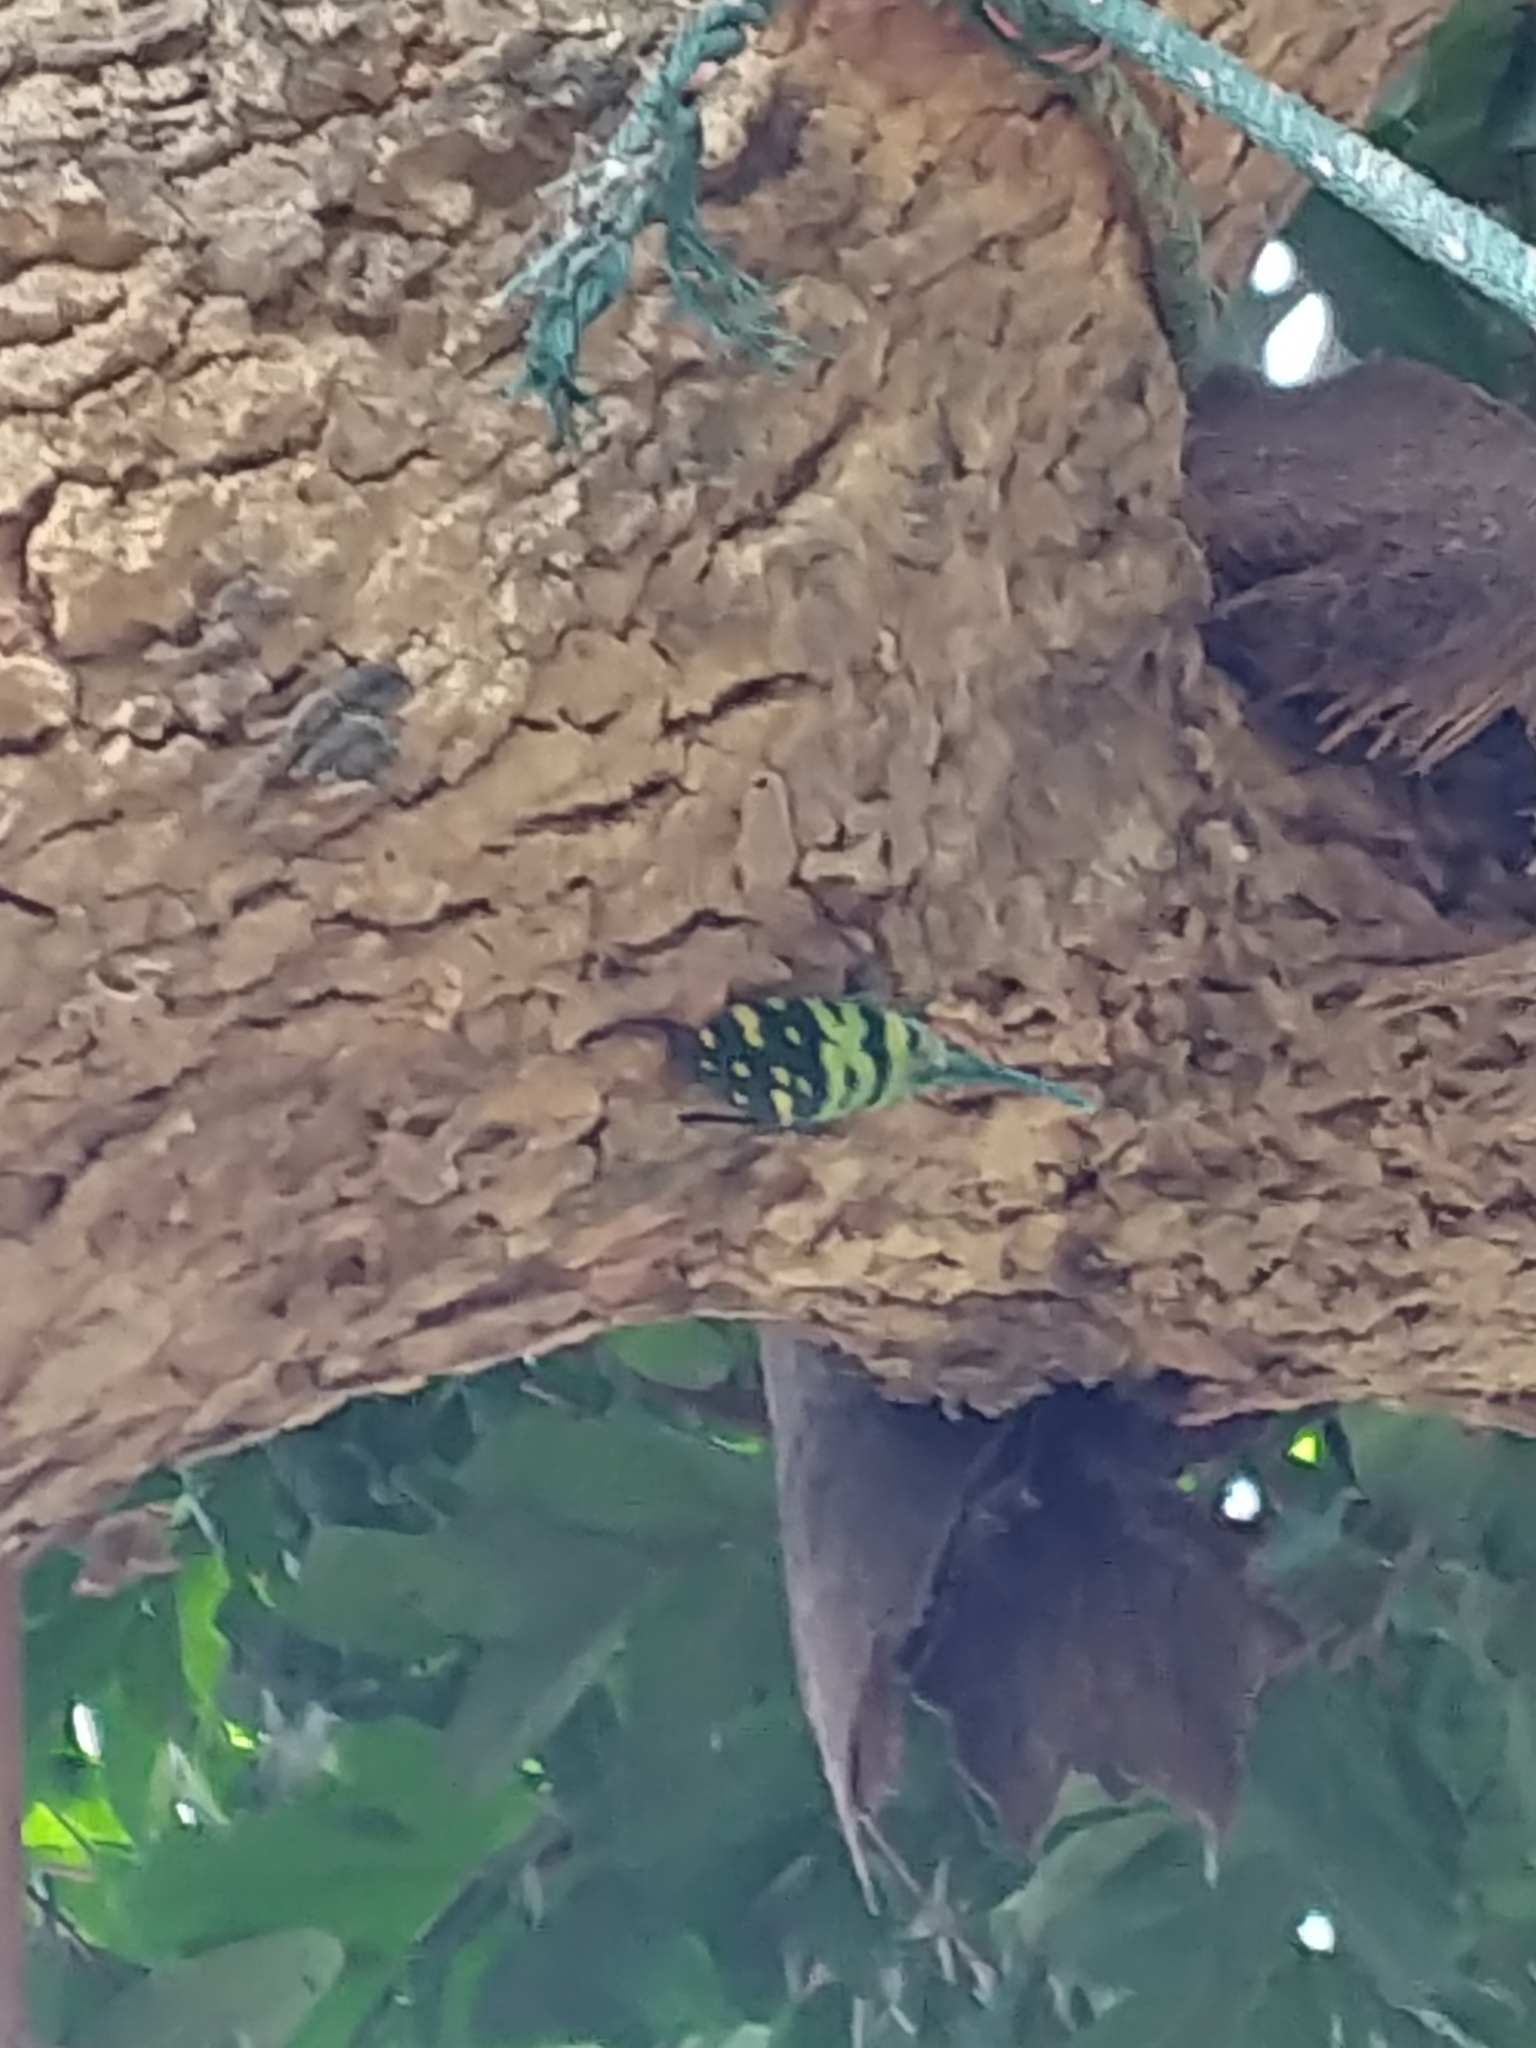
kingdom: Animalia
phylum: Arthropoda
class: Insecta
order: Hemiptera
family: Fulgoridae
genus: Pyrops
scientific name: Pyrops viridirostris
